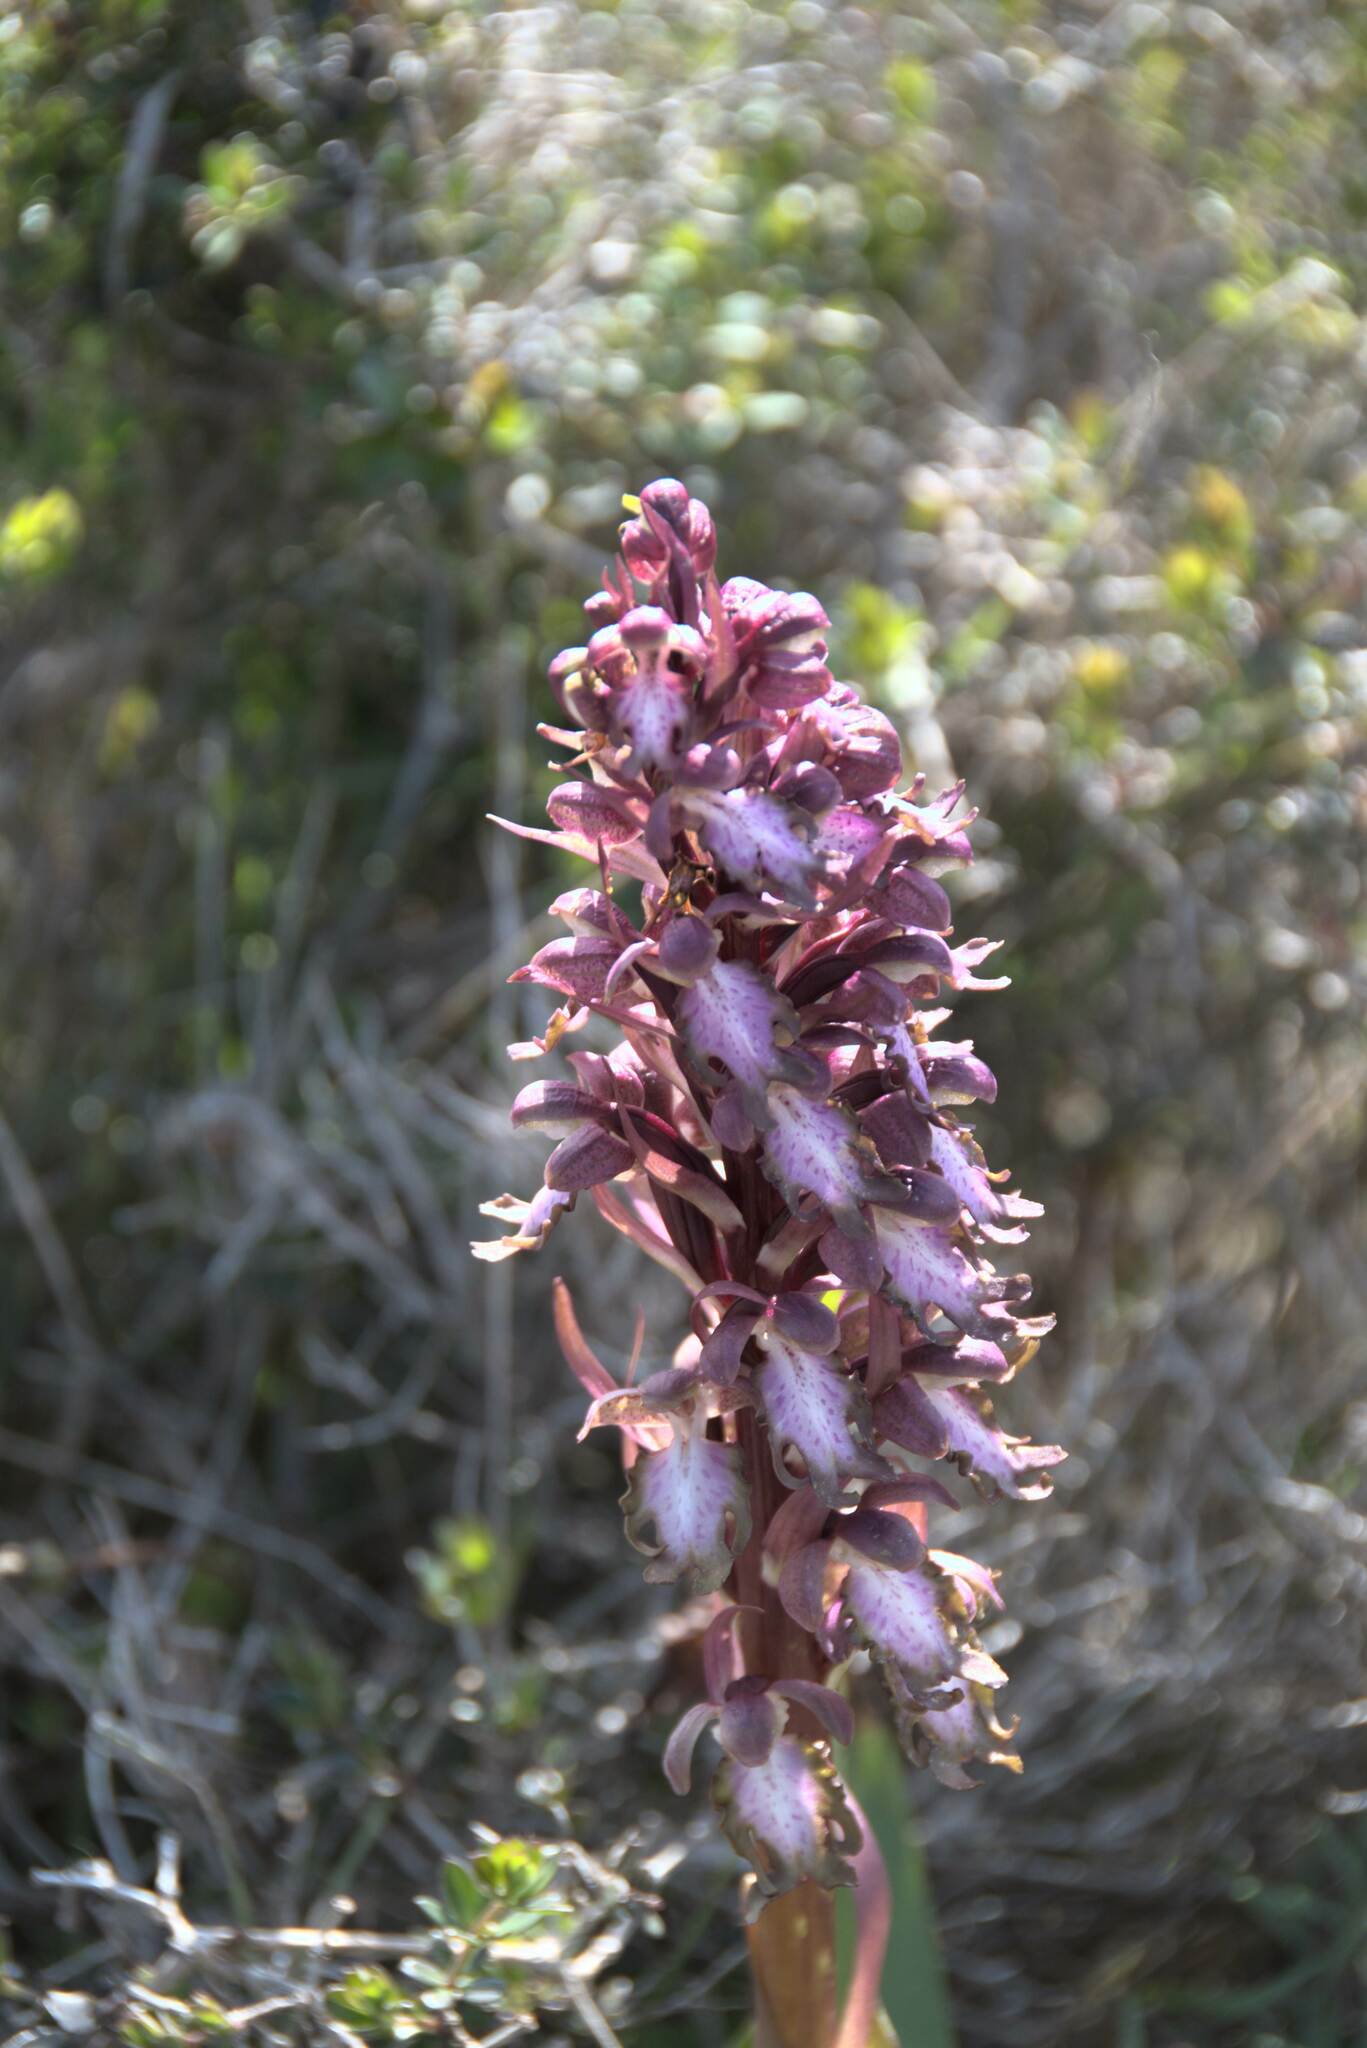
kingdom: Plantae
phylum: Tracheophyta
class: Liliopsida
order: Asparagales
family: Orchidaceae
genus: Himantoglossum
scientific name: Himantoglossum robertianum
